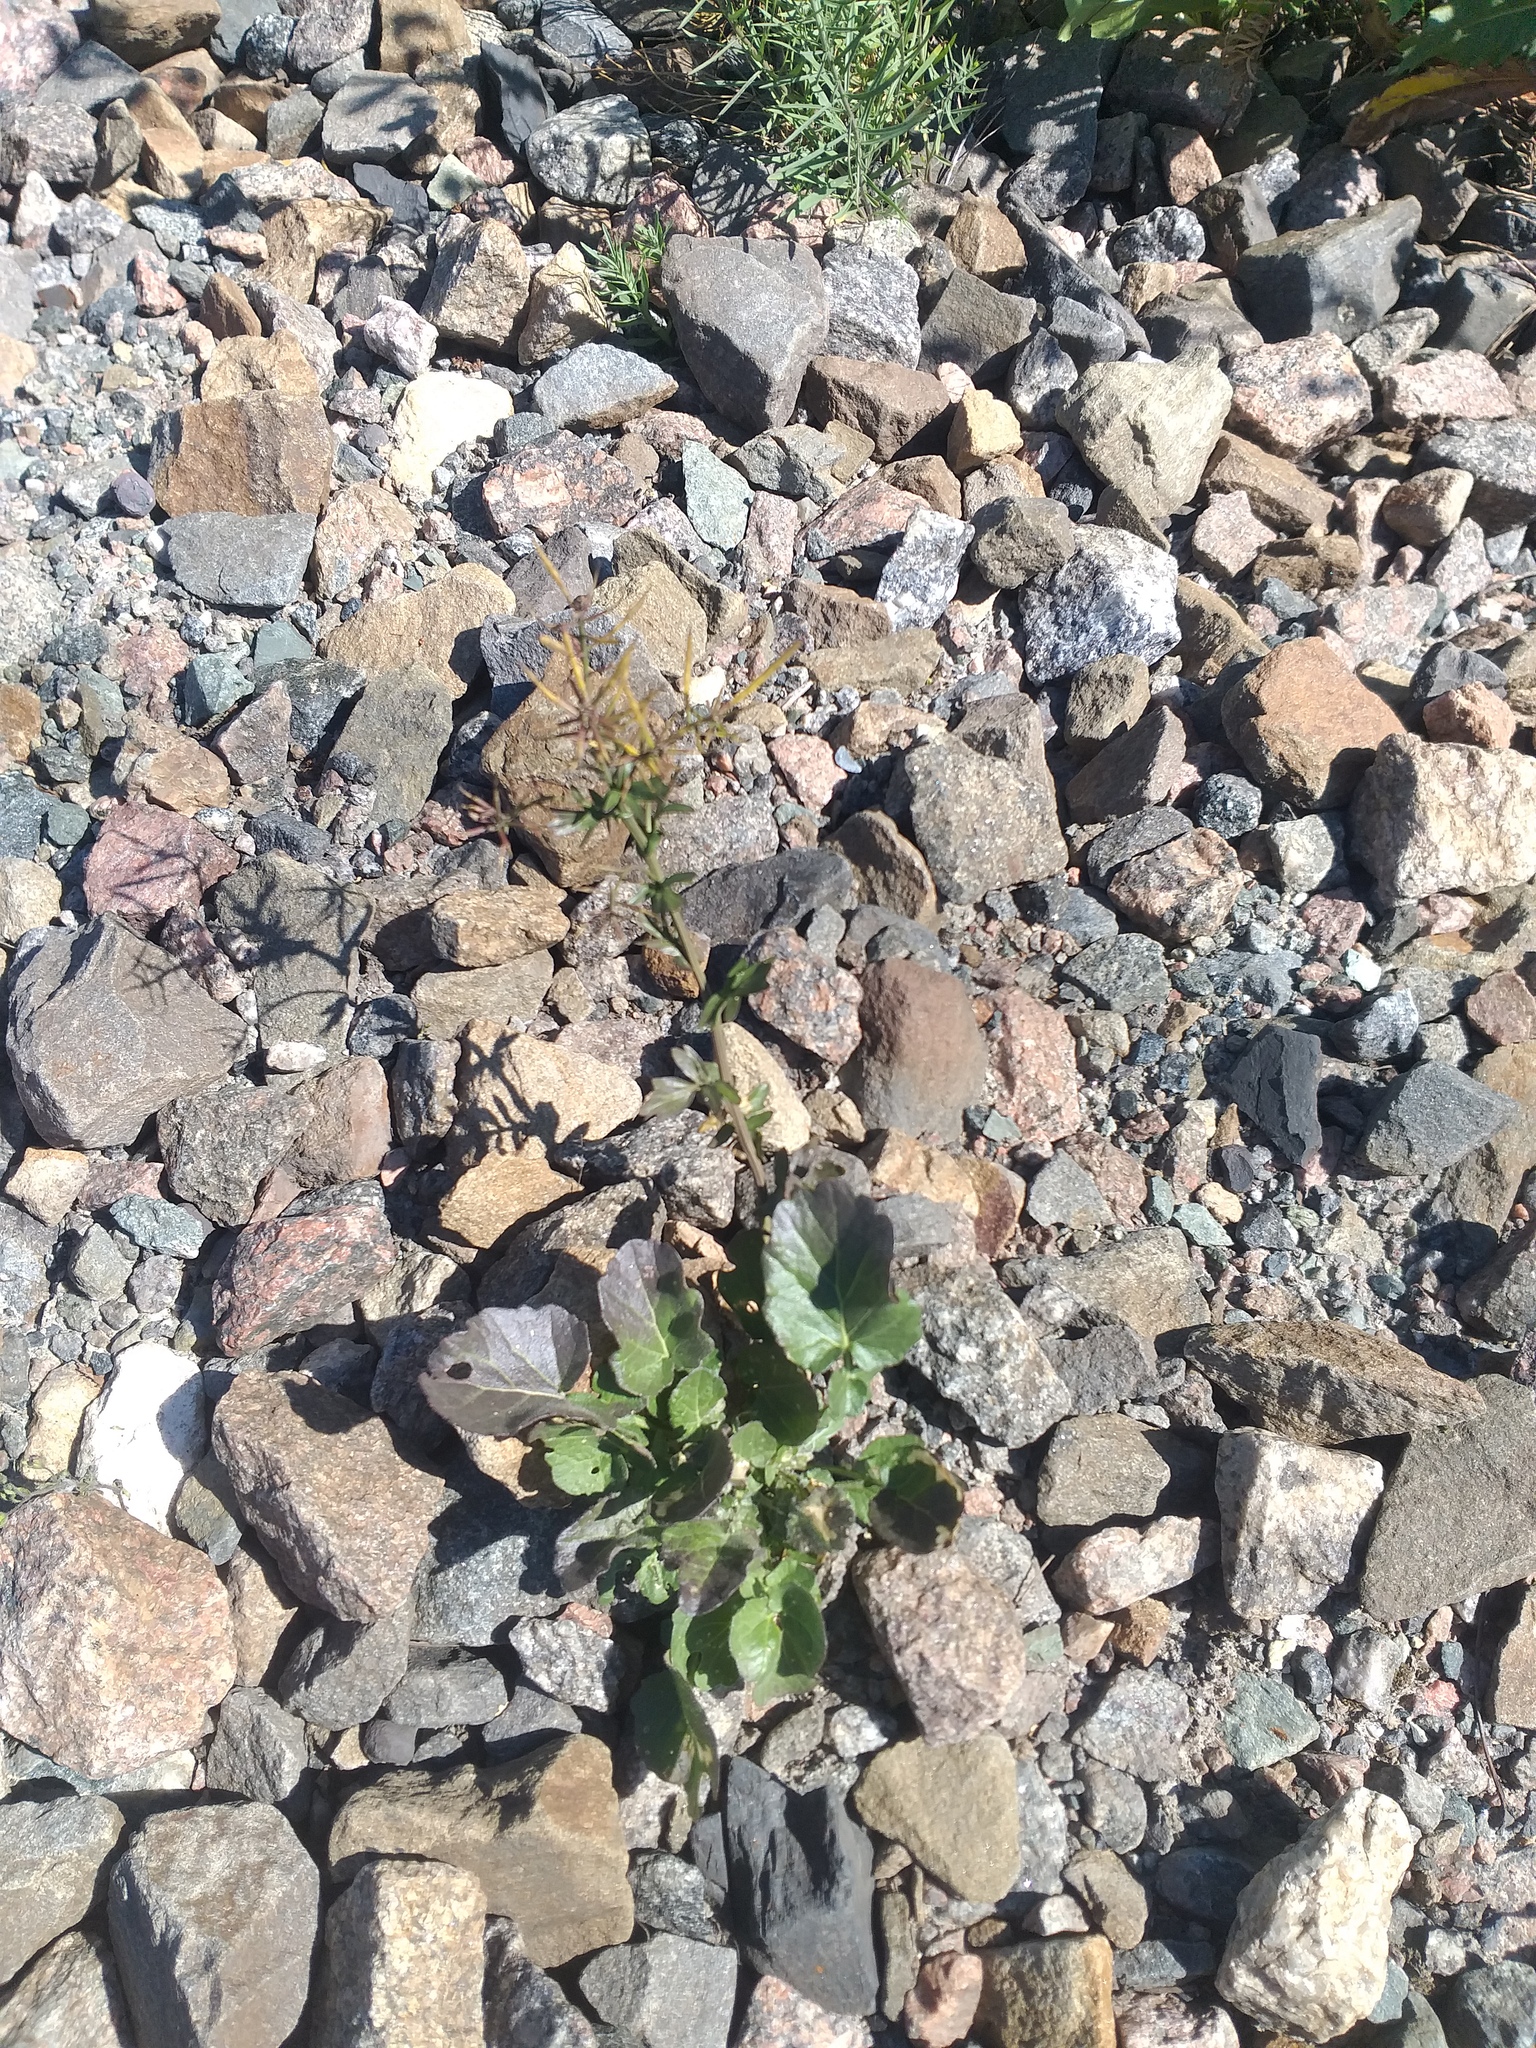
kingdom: Plantae
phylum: Tracheophyta
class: Magnoliopsida
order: Brassicales
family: Brassicaceae
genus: Barbarea
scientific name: Barbarea vulgaris
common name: Cressy-greens
